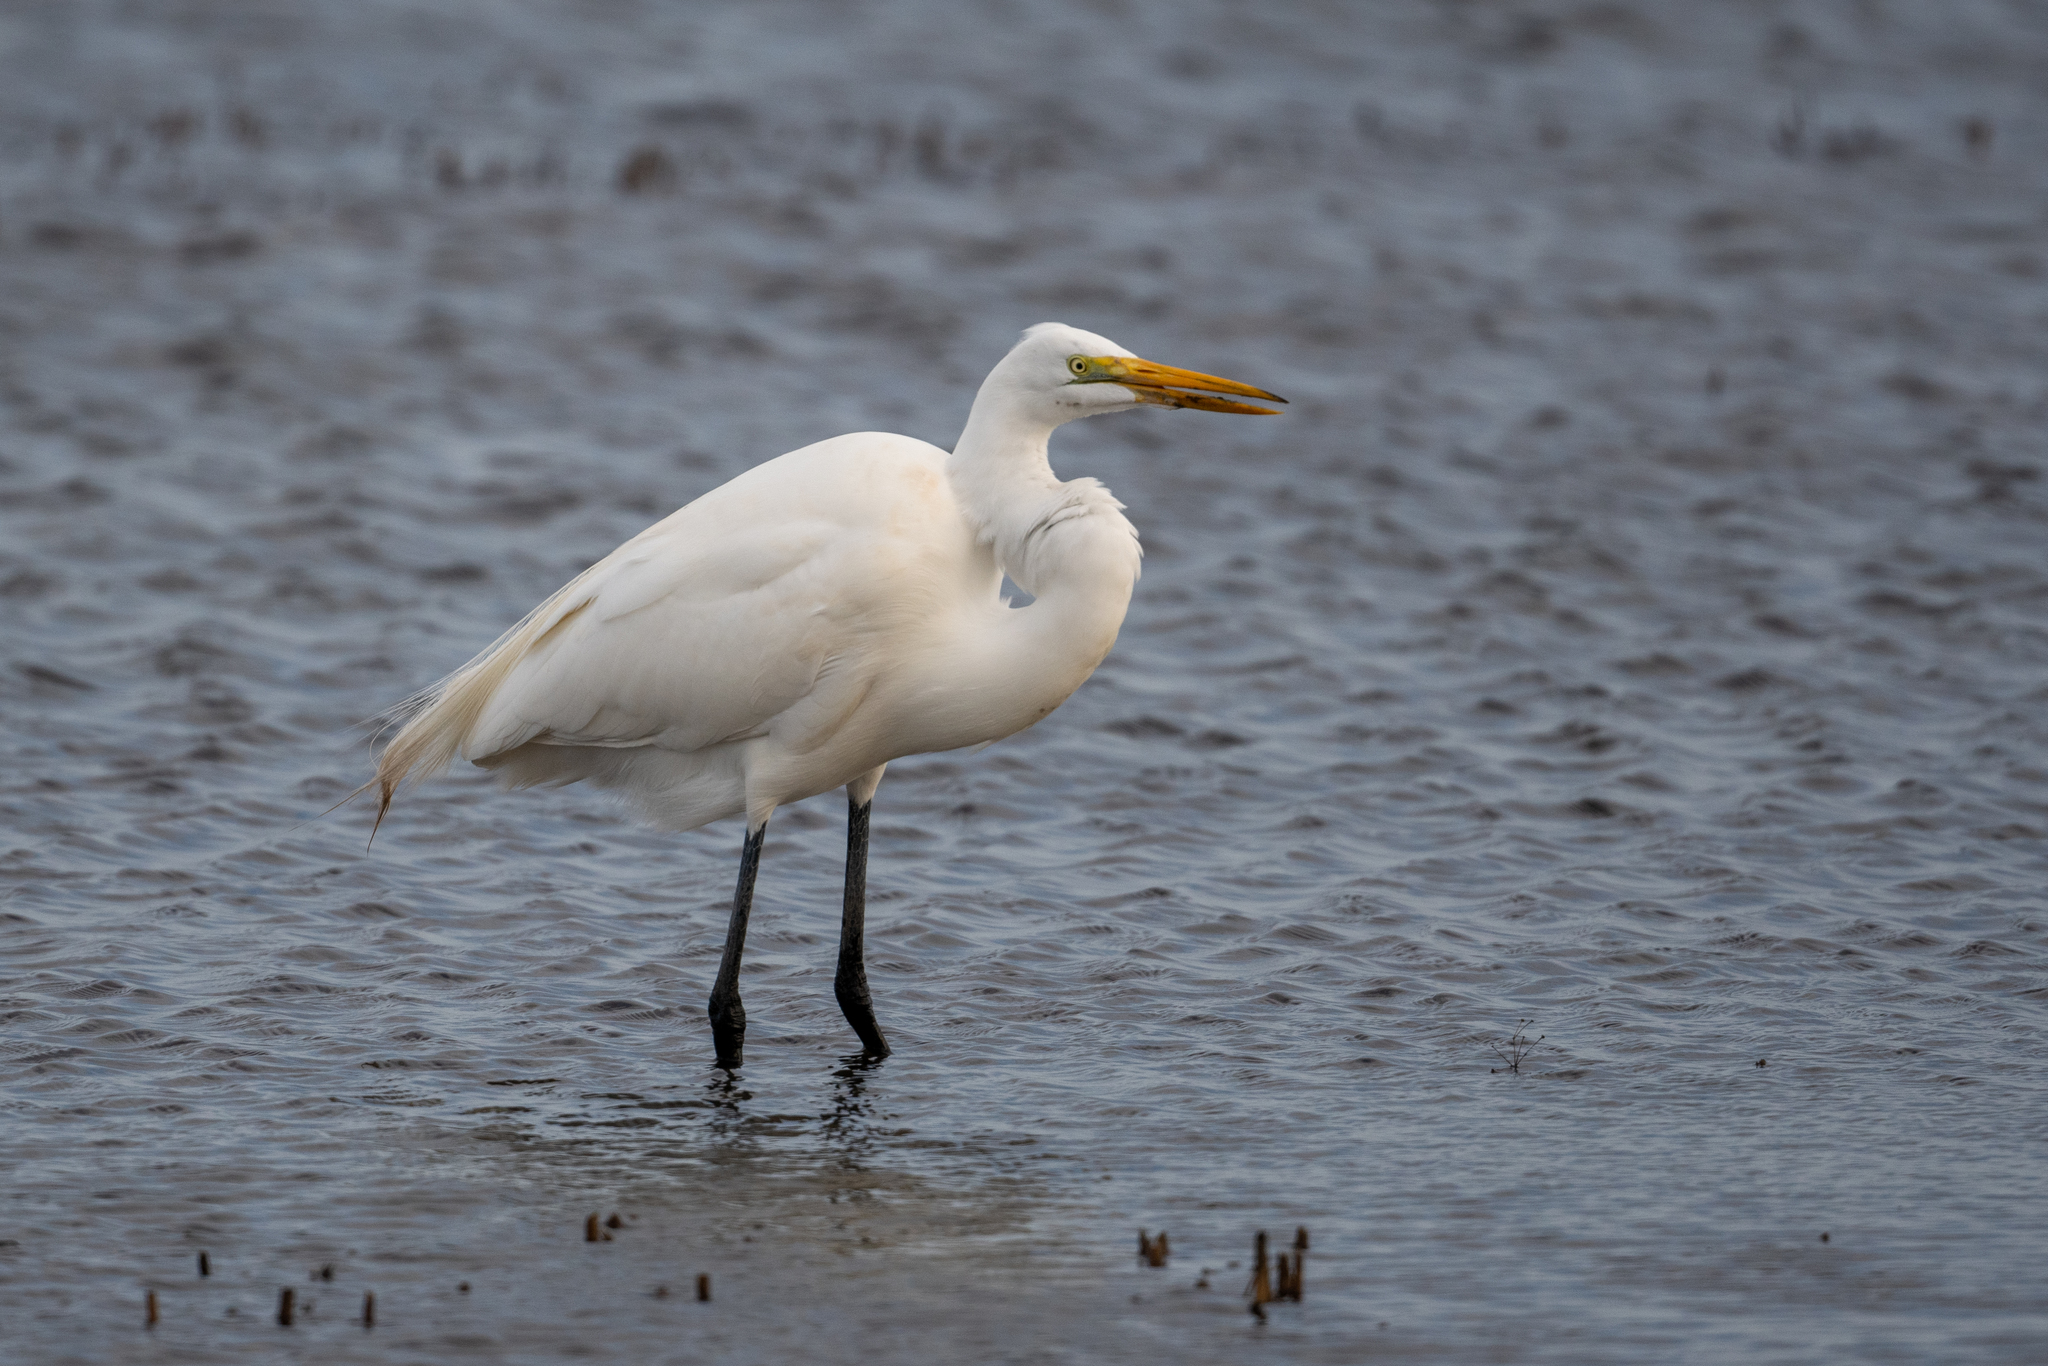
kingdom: Animalia
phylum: Chordata
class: Aves
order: Pelecaniformes
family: Ardeidae
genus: Ardea
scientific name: Ardea alba
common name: Great egret
